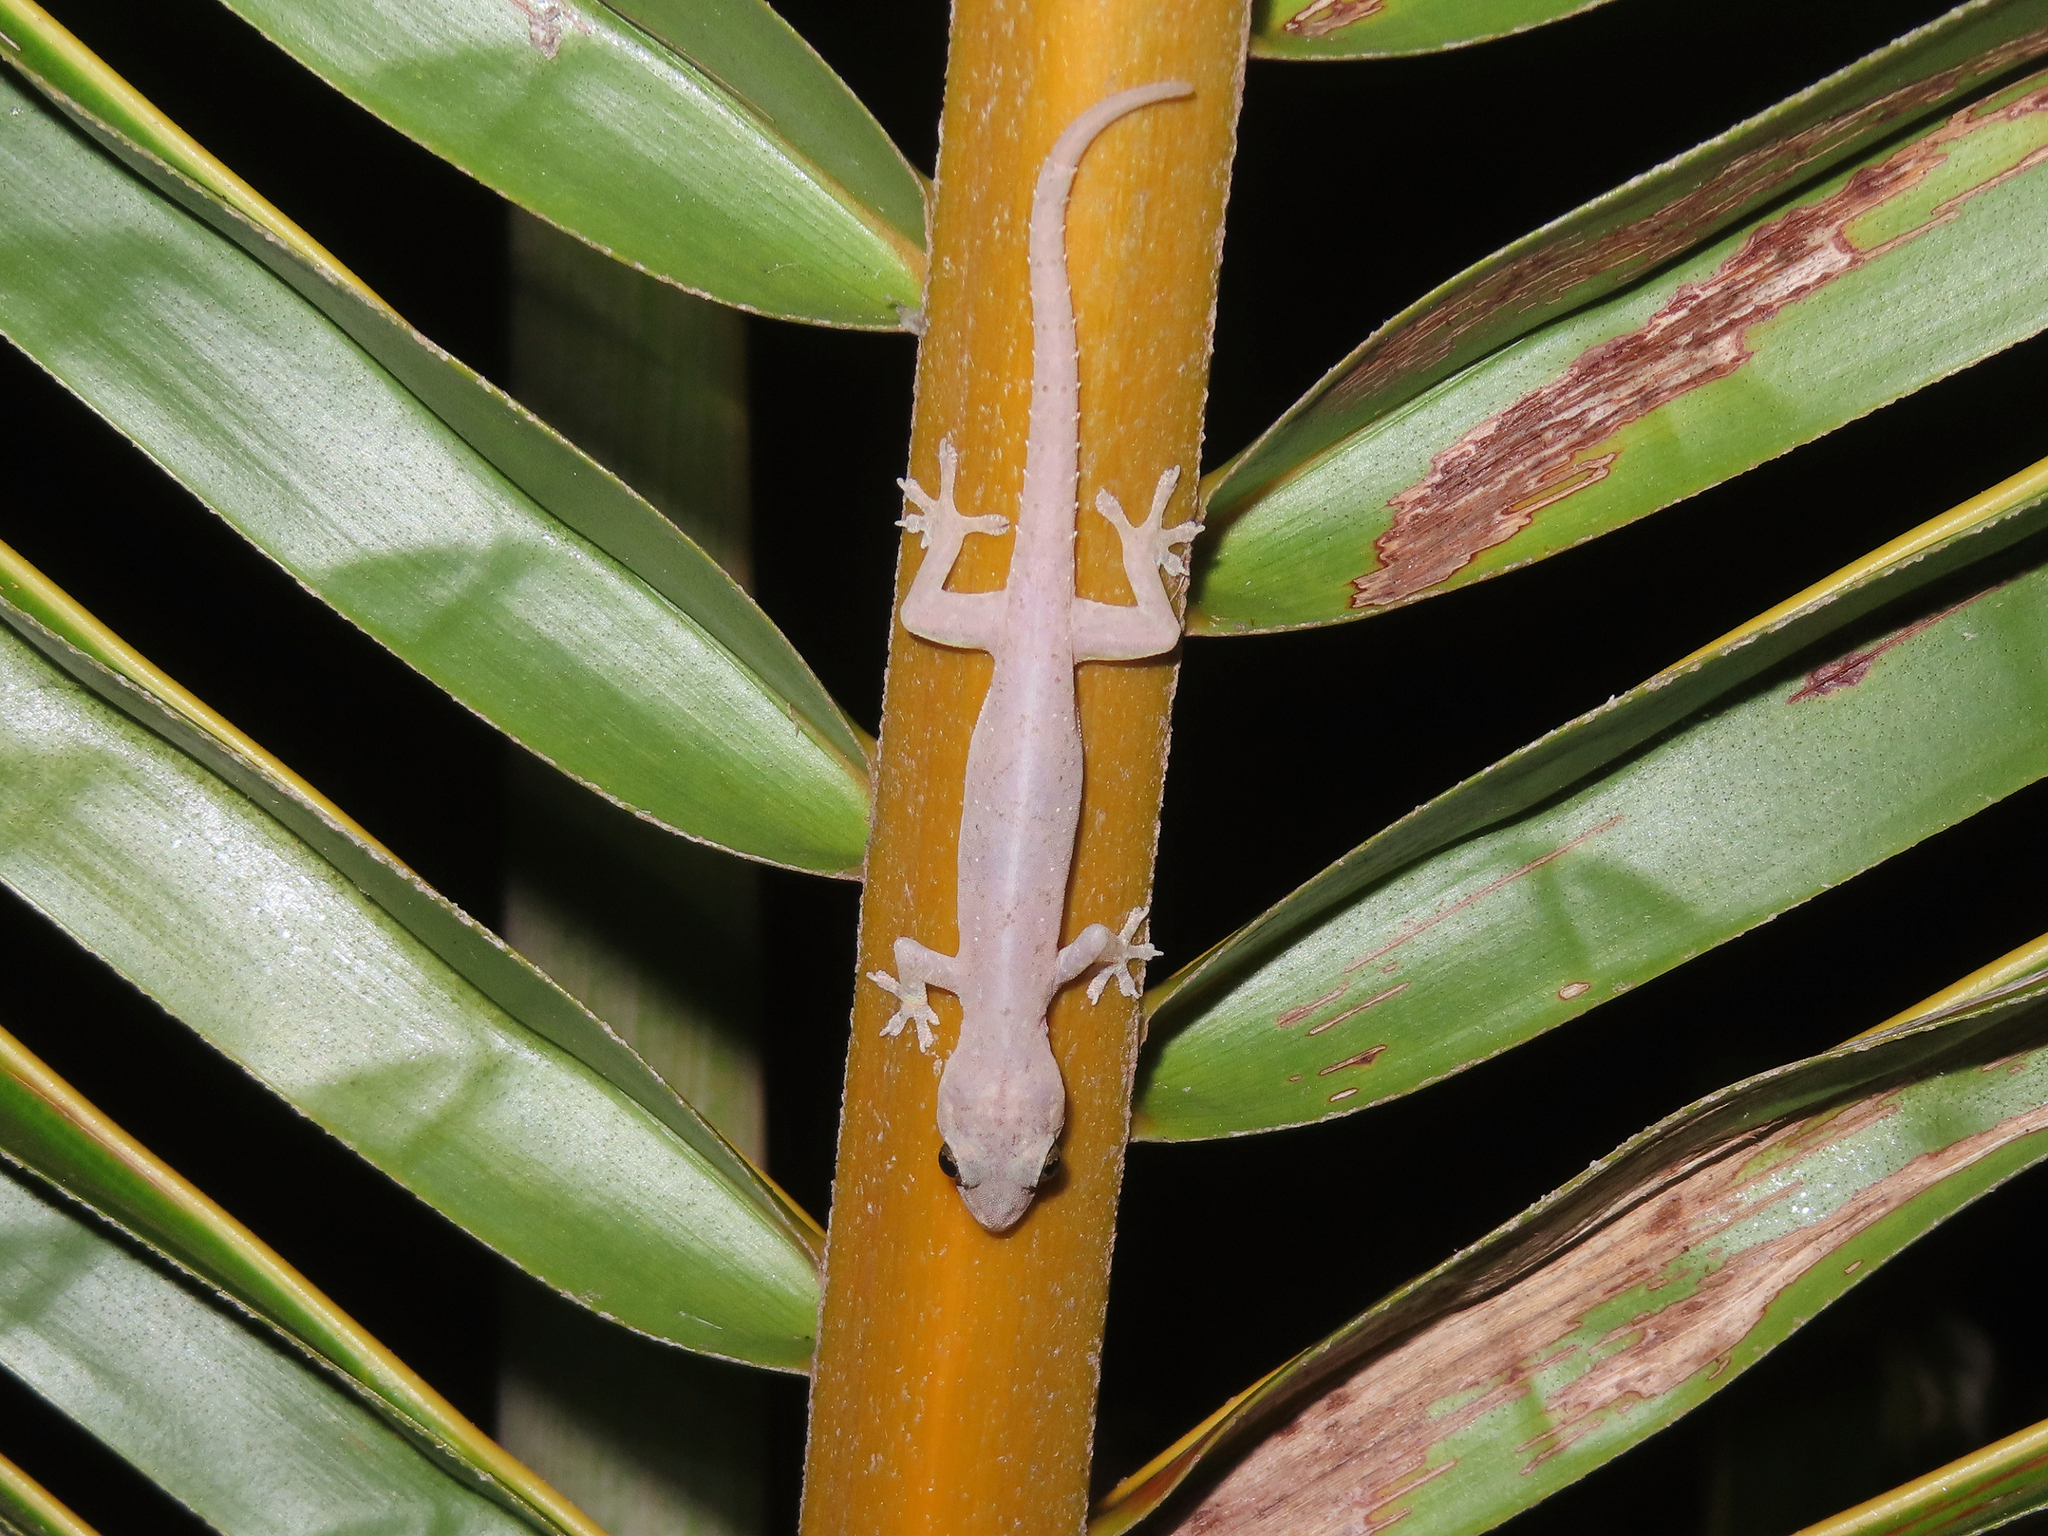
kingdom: Animalia
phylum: Chordata
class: Squamata
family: Gekkonidae
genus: Hemidactylus
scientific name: Hemidactylus frenatus
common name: Common house gecko
